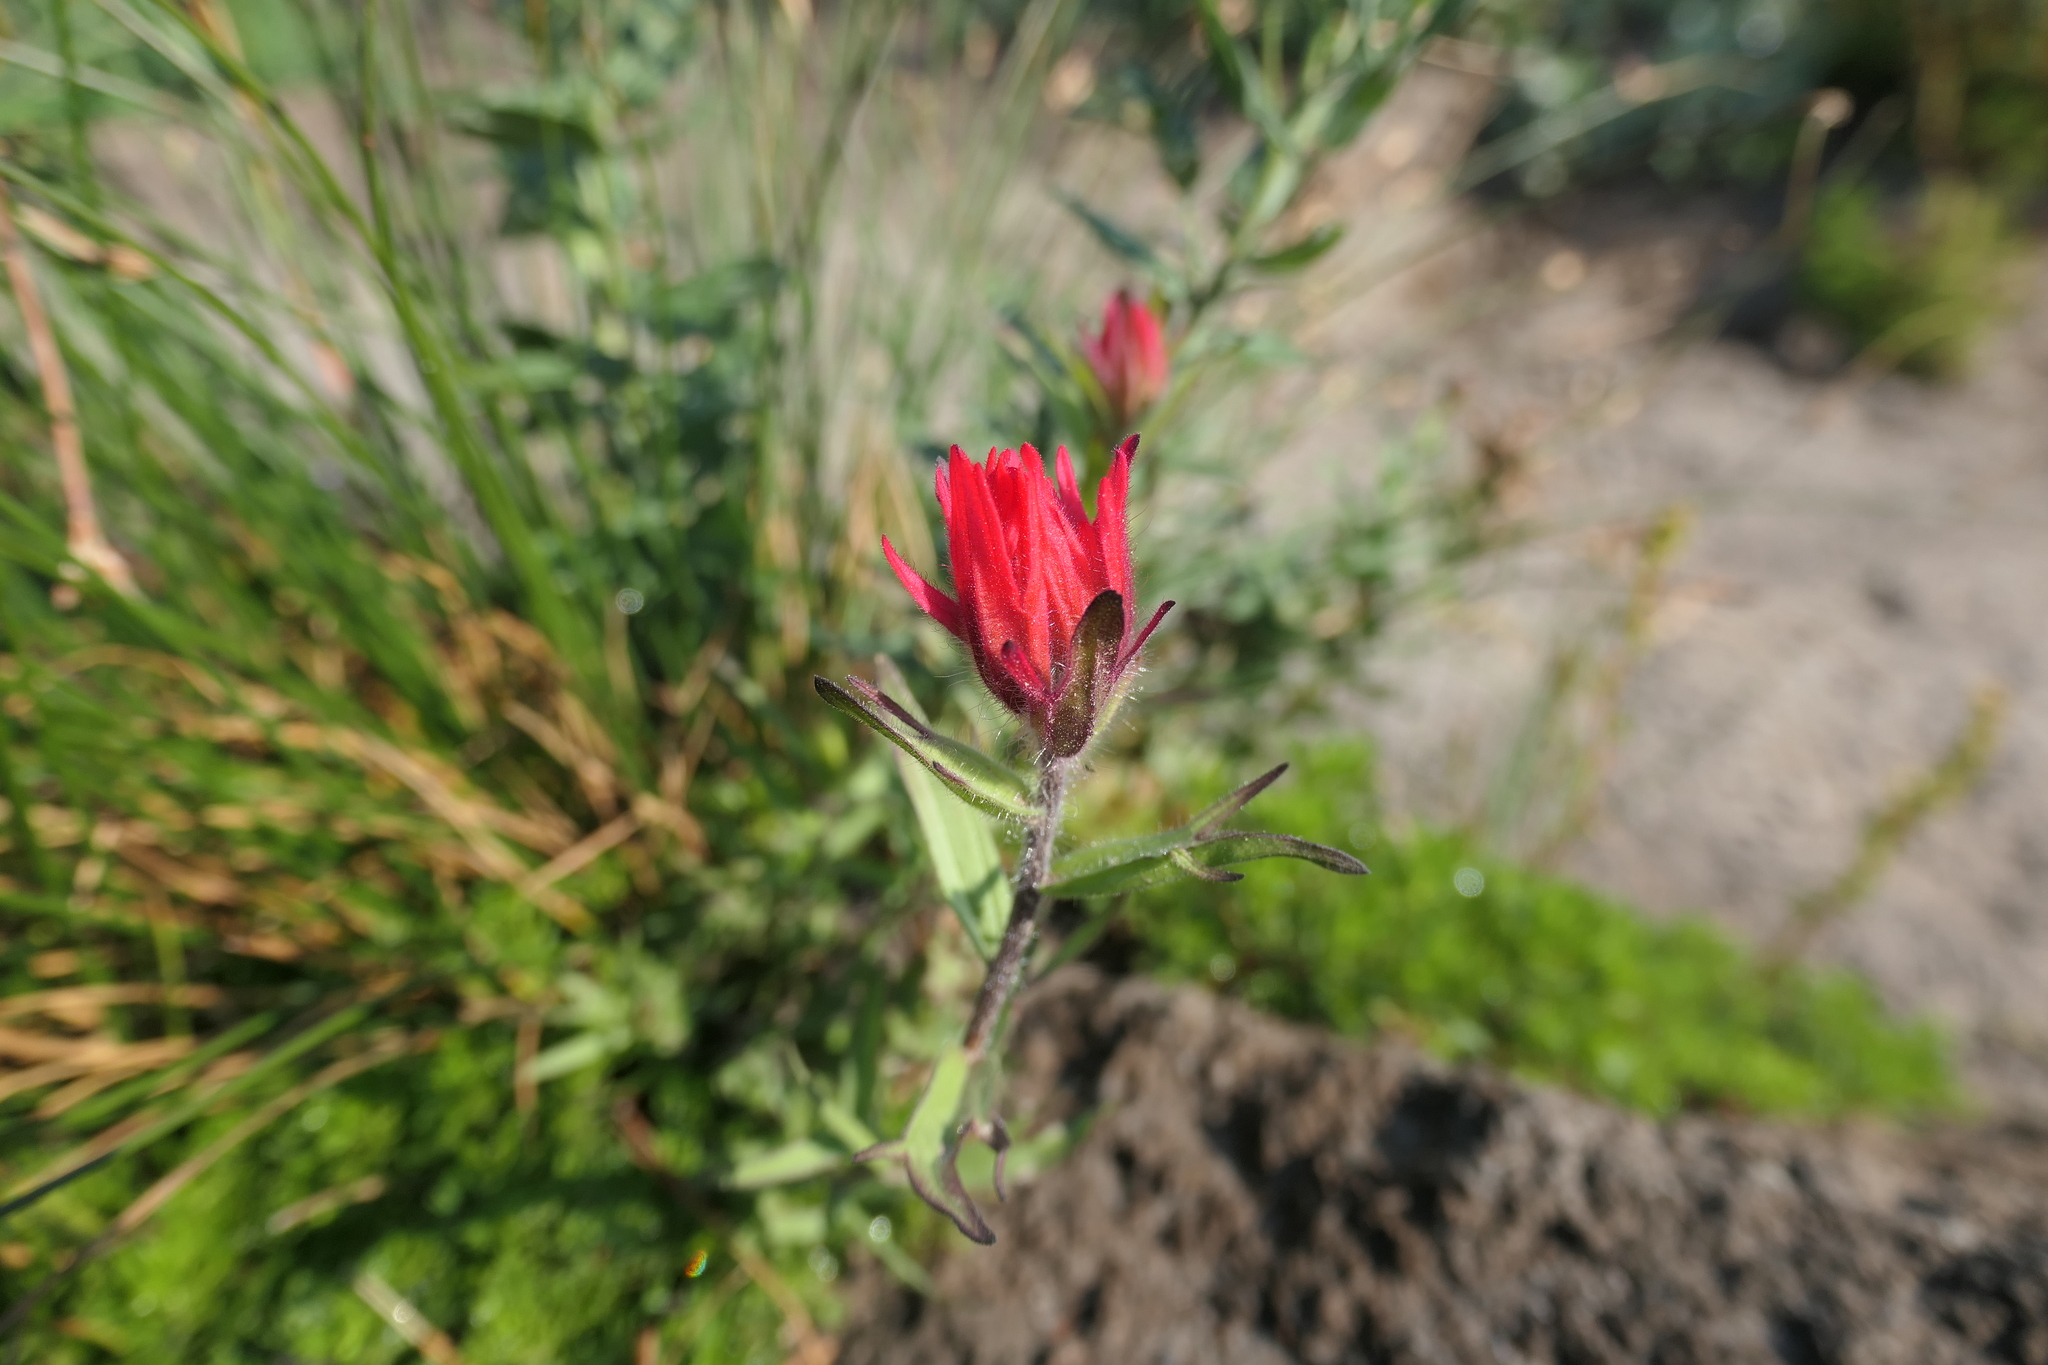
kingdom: Plantae
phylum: Tracheophyta
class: Magnoliopsida
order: Lamiales
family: Orobanchaceae
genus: Castilleja
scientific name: Castilleja parviflora
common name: Mountain paintbrush
